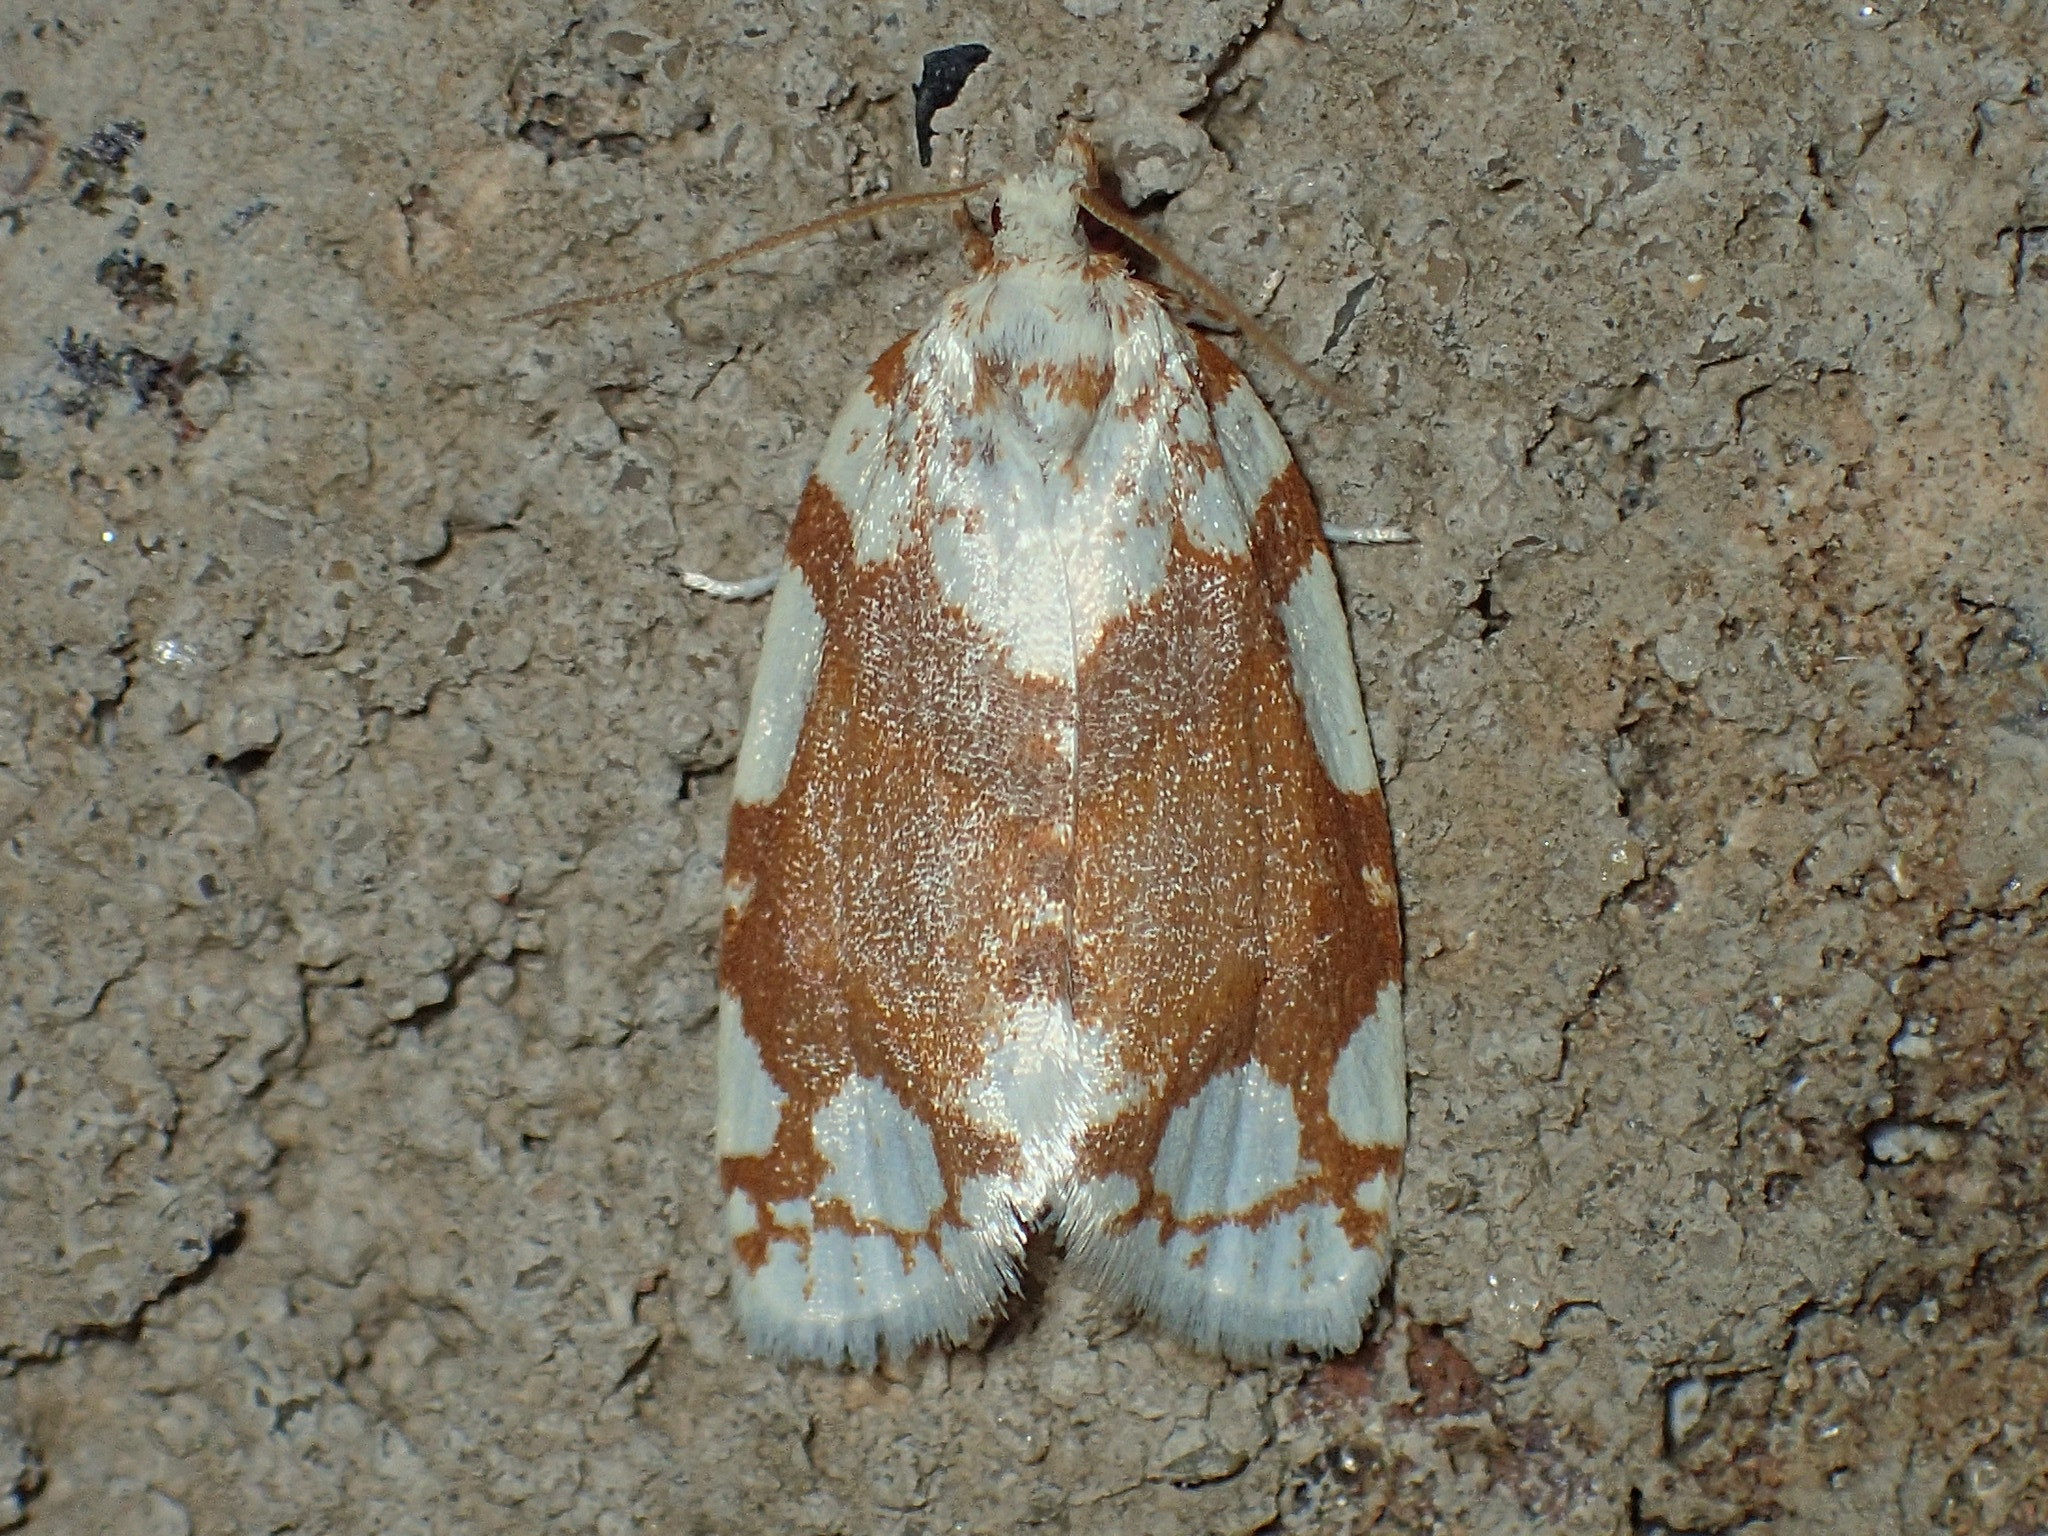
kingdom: Animalia
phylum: Arthropoda
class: Insecta
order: Lepidoptera
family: Tortricidae
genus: Argyrotaenia
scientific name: Argyrotaenia alisellana
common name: White-spotted leafroller moth
